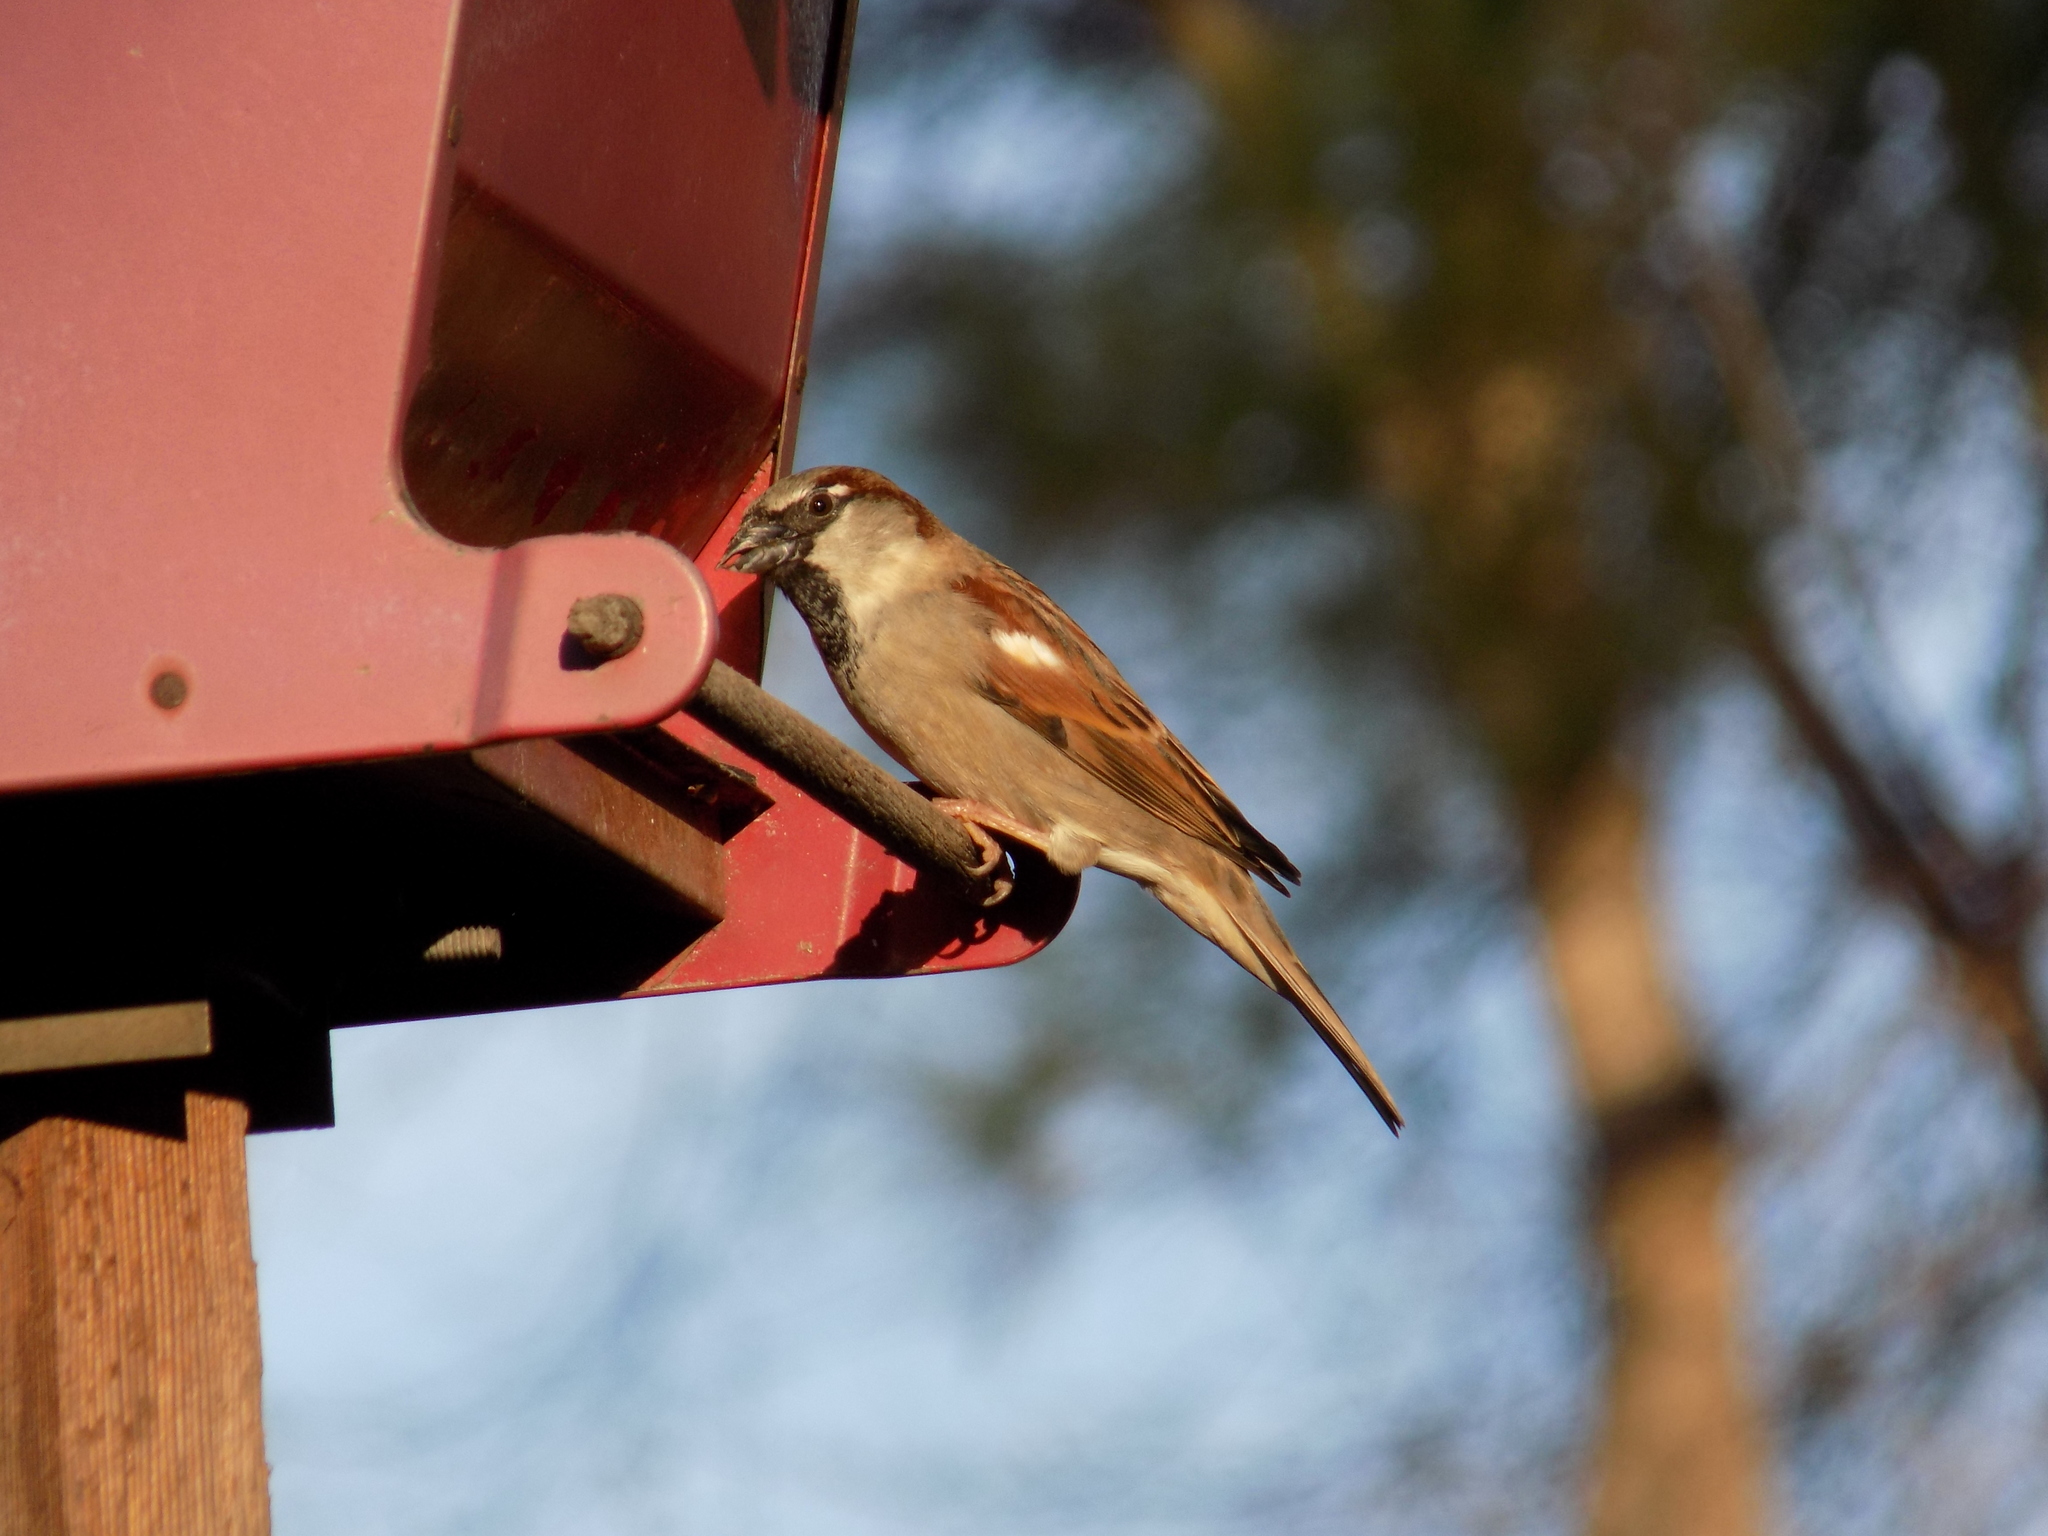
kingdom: Animalia
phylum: Chordata
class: Aves
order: Passeriformes
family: Passeridae
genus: Passer
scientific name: Passer domesticus
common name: House sparrow
